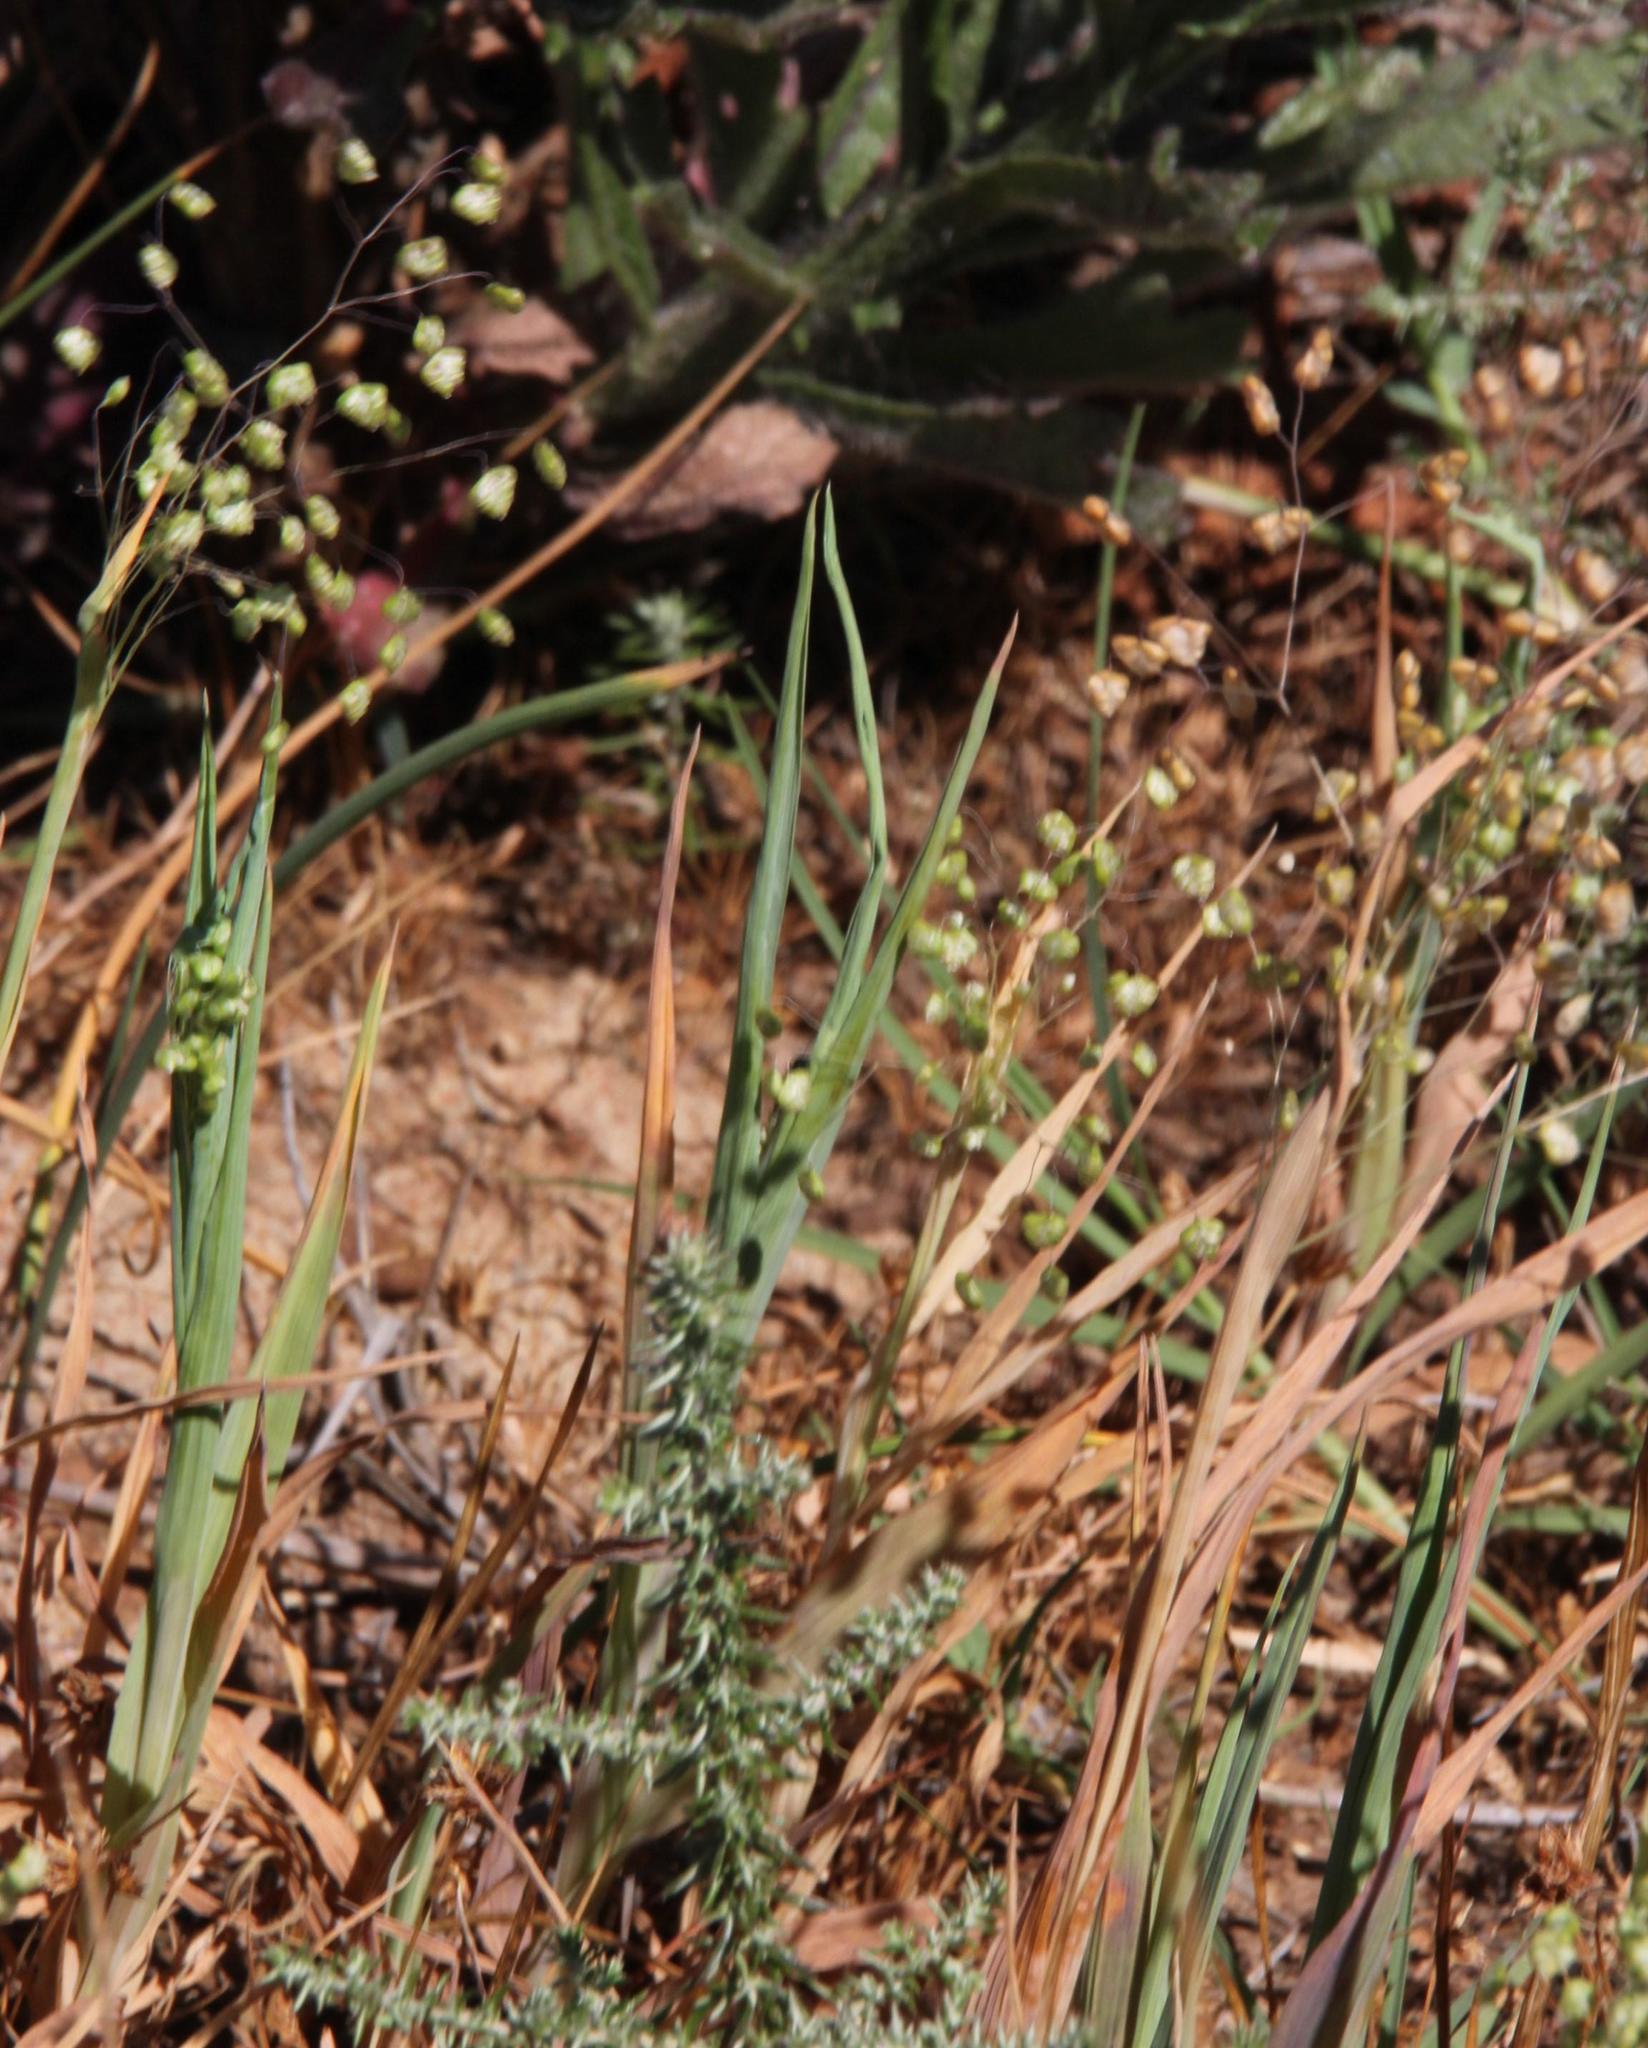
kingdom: Plantae
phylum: Tracheophyta
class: Liliopsida
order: Poales
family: Poaceae
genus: Briza
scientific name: Briza minor
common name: Lesser quaking-grass
